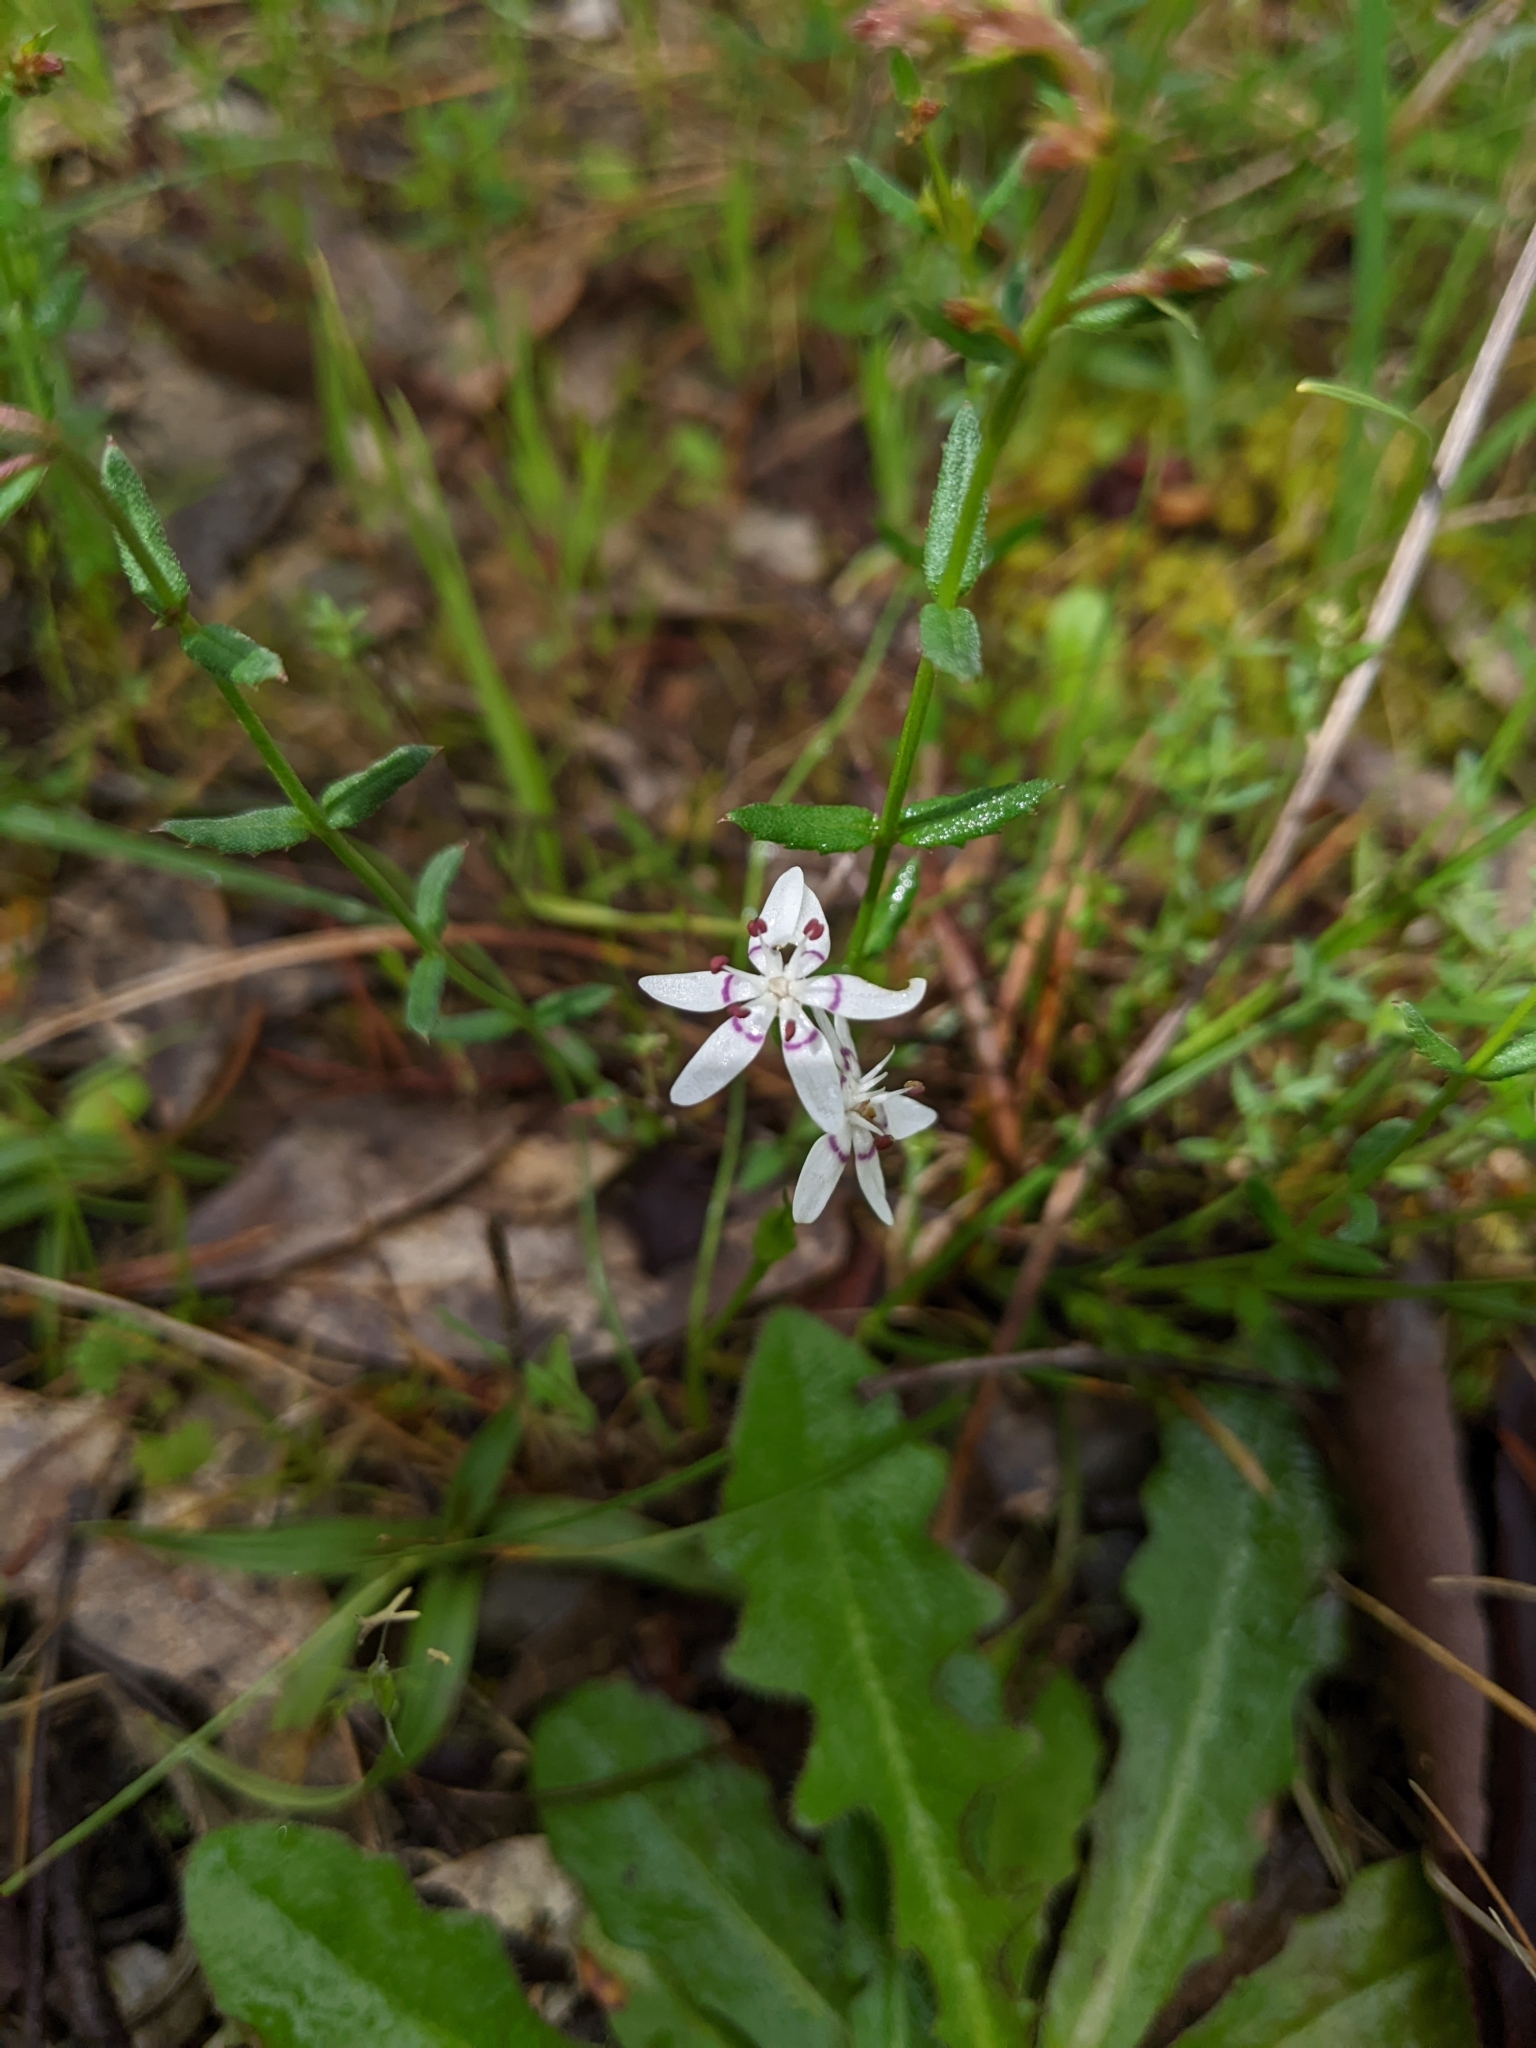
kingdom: Plantae
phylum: Tracheophyta
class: Liliopsida
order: Liliales
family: Colchicaceae
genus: Wurmbea
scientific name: Wurmbea dioica
